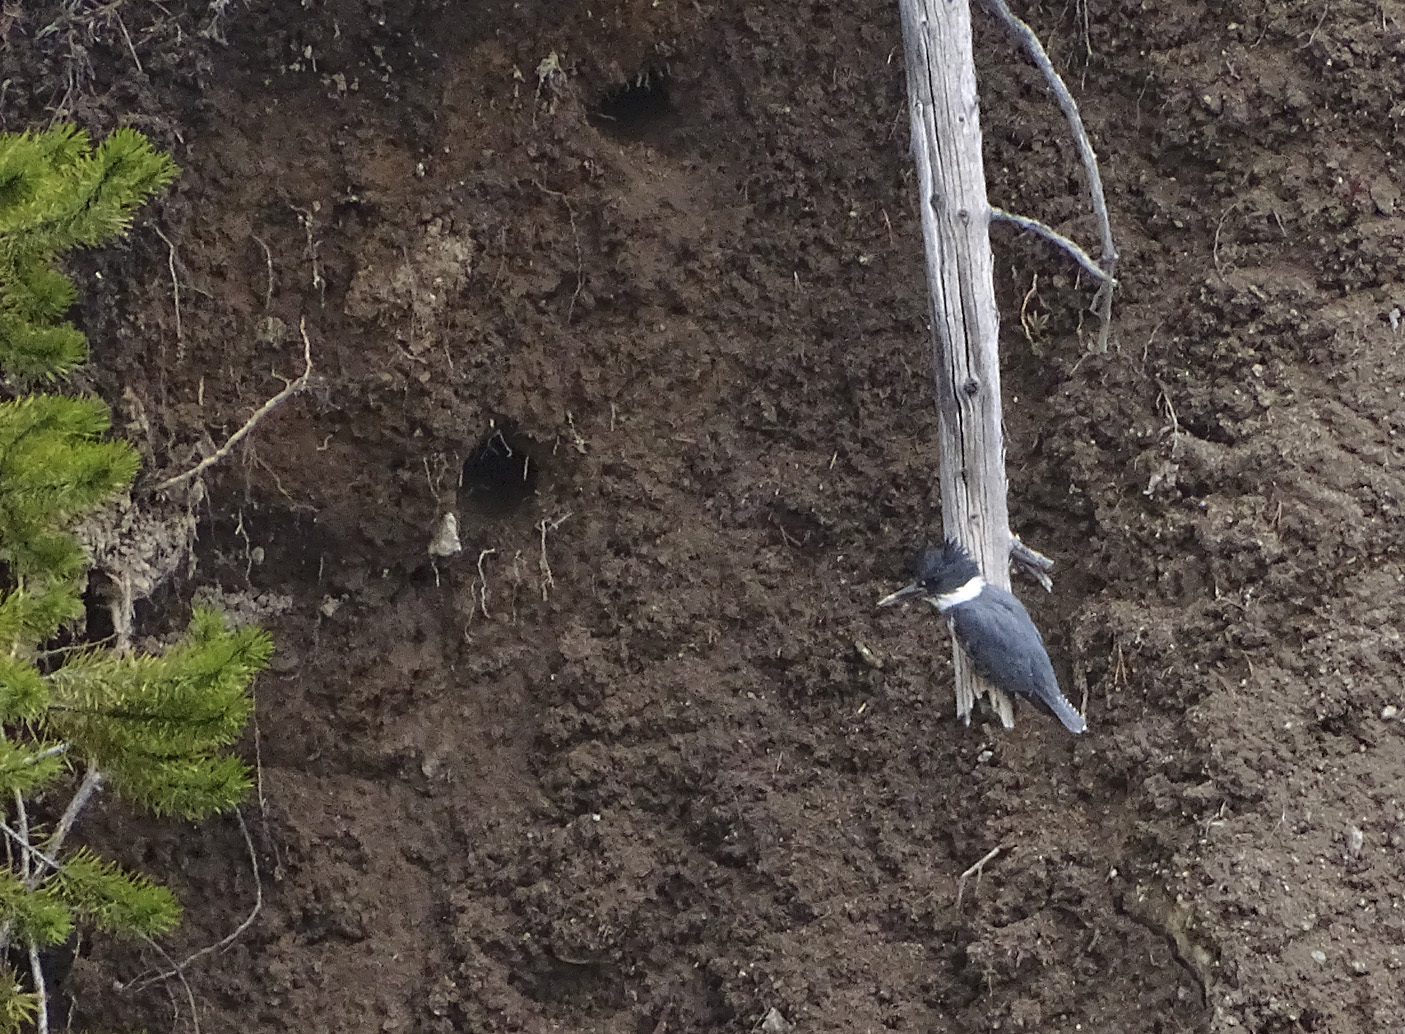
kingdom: Animalia
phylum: Chordata
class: Aves
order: Coraciiformes
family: Alcedinidae
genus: Megaceryle
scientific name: Megaceryle alcyon
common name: Belted kingfisher
